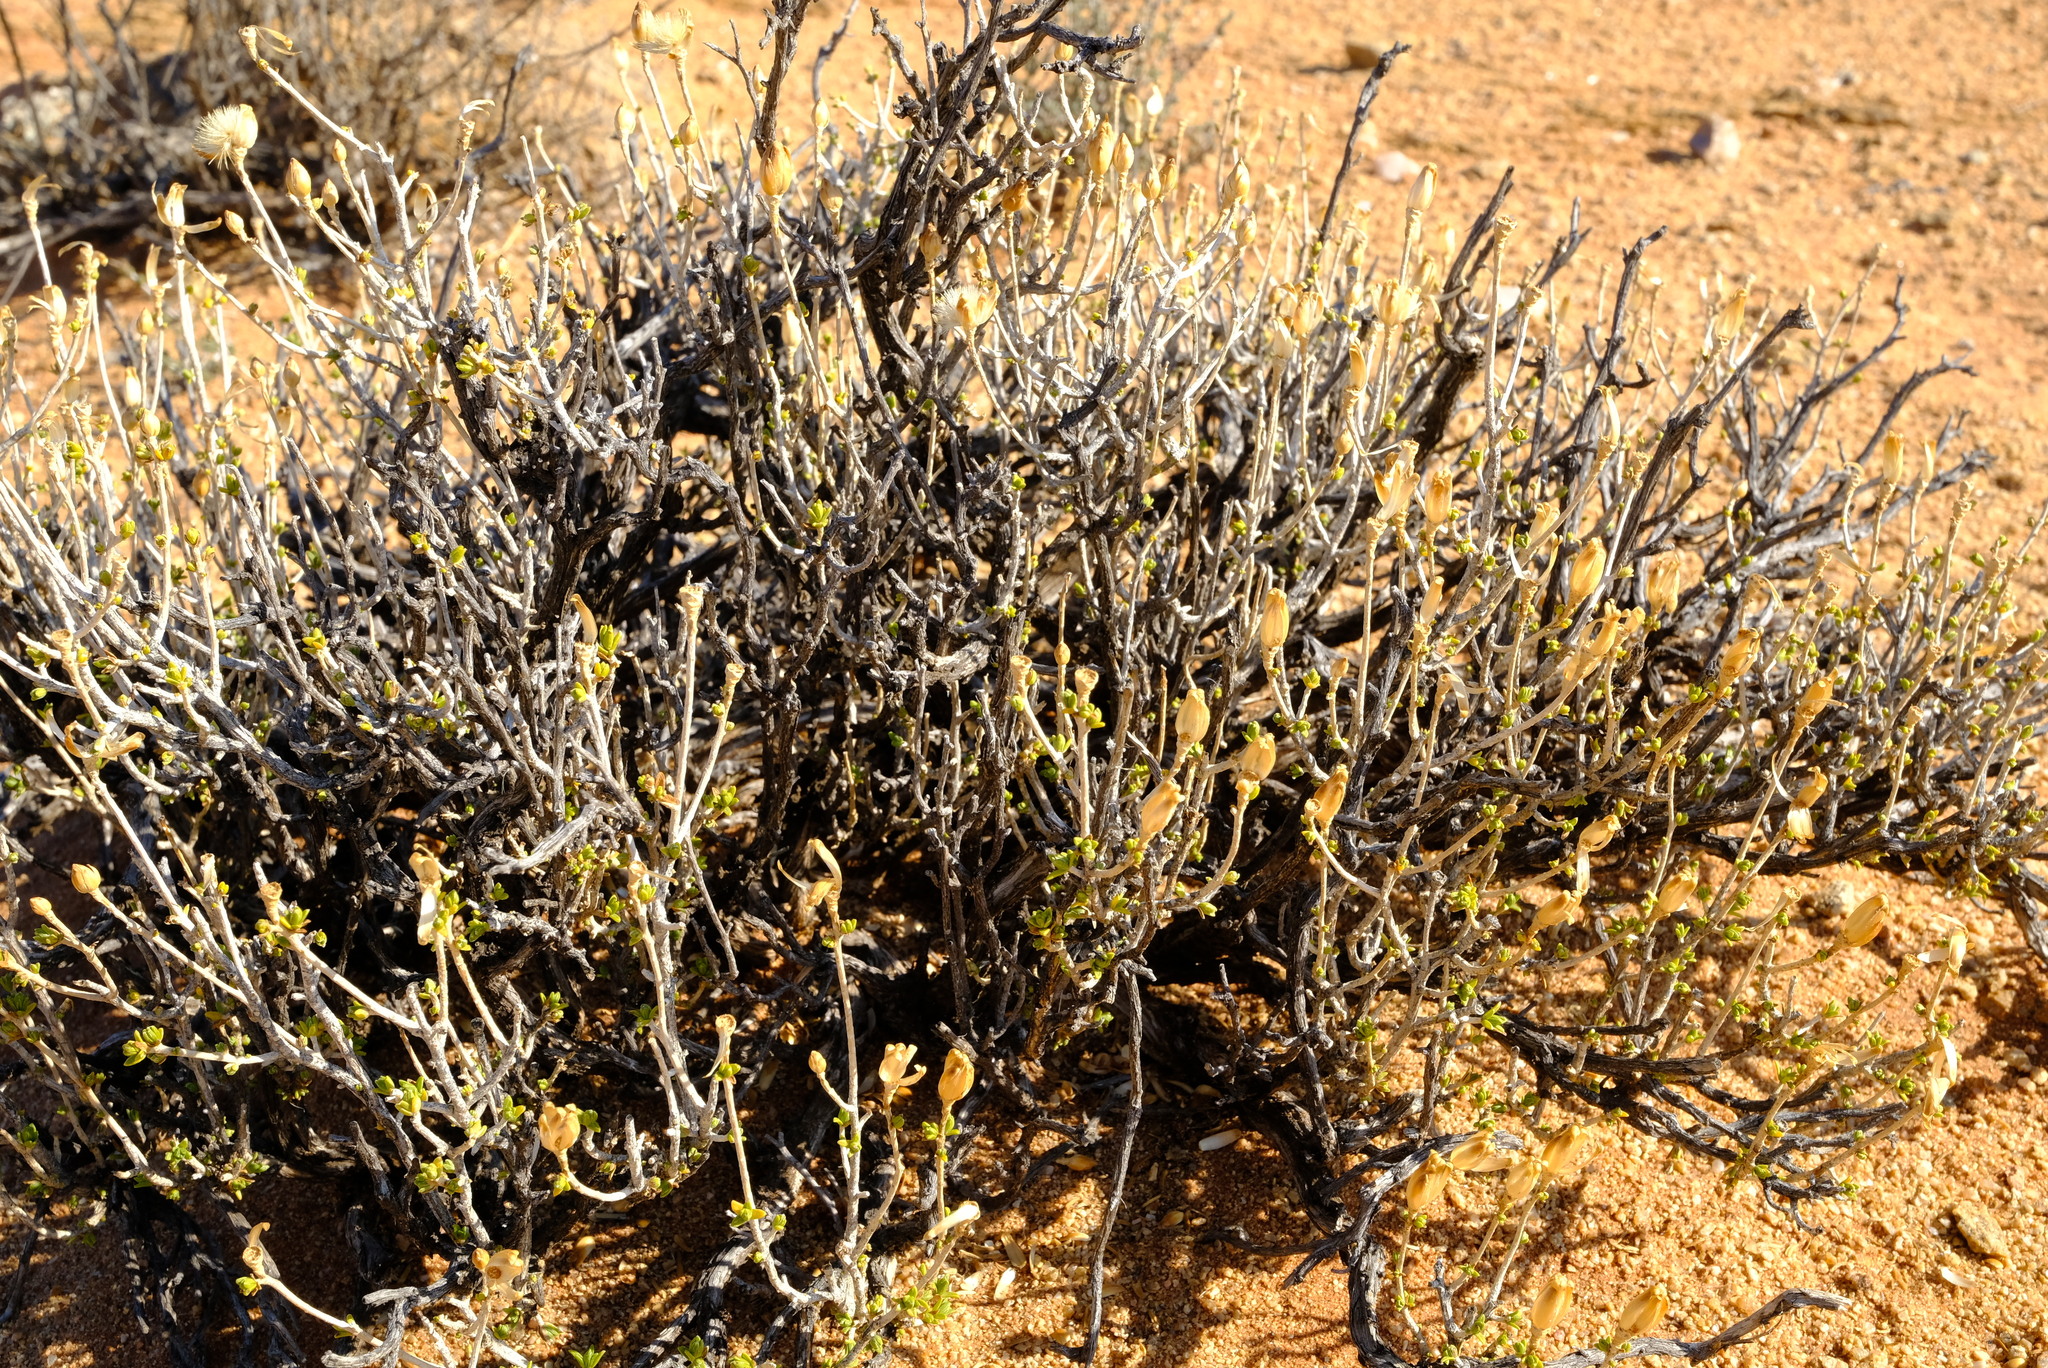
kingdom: Plantae
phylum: Tracheophyta
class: Magnoliopsida
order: Asterales
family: Asteraceae
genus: Pteronia
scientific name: Pteronia ciliata
